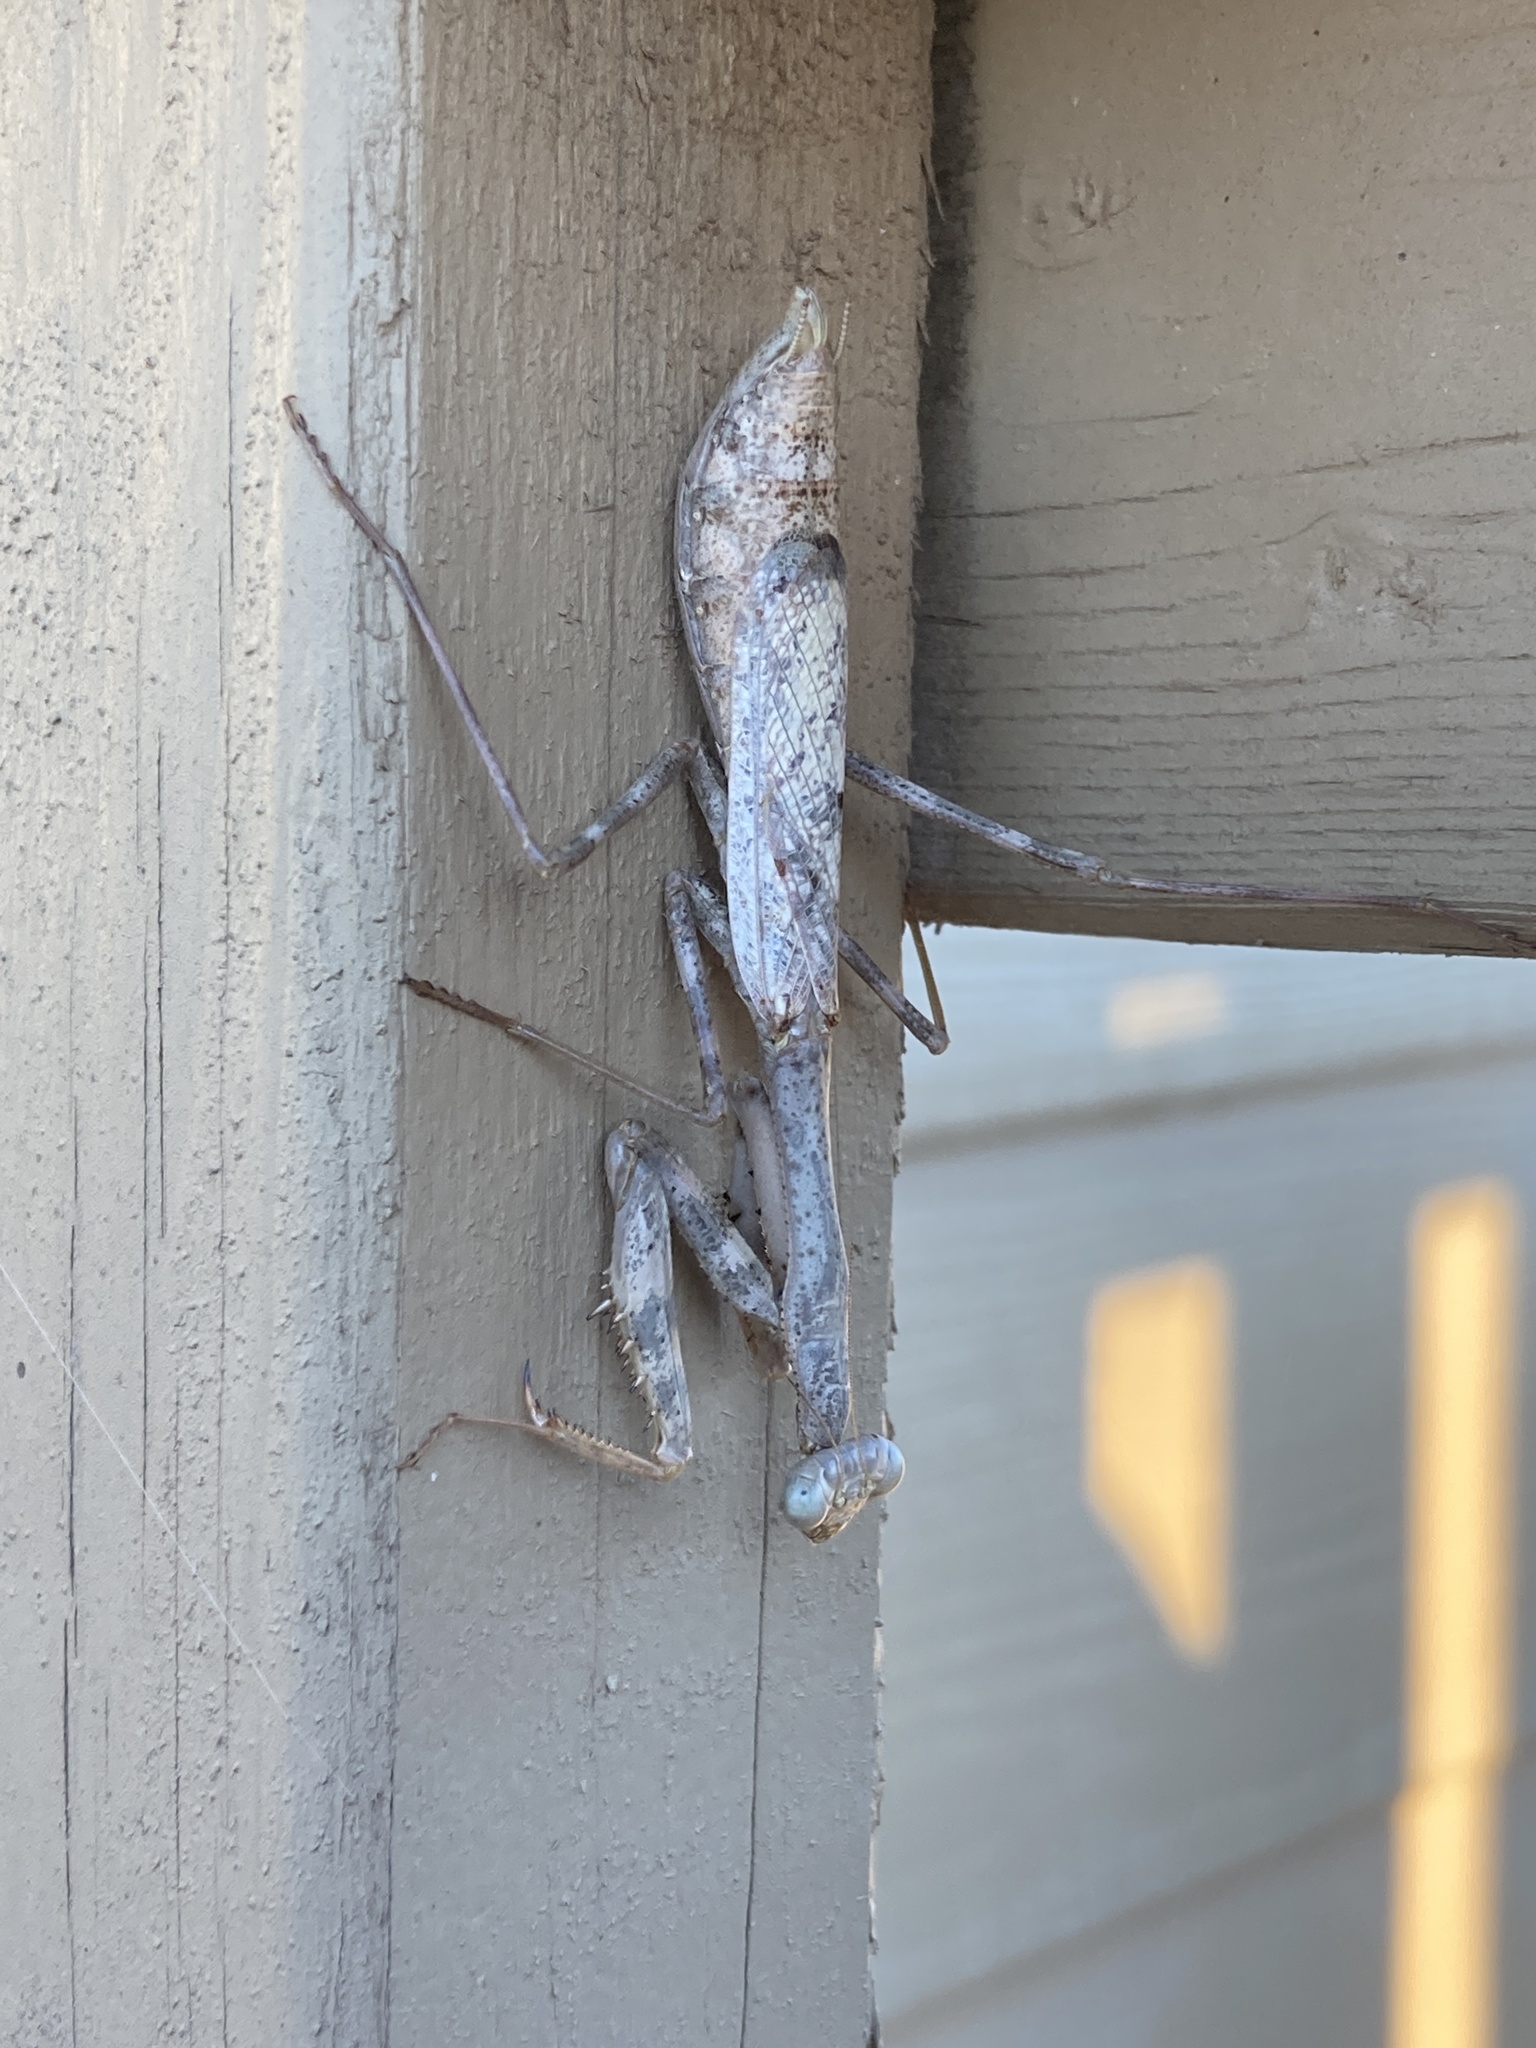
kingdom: Animalia
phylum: Arthropoda
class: Insecta
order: Mantodea
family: Mantidae
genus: Stagmomantis
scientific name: Stagmomantis carolina
